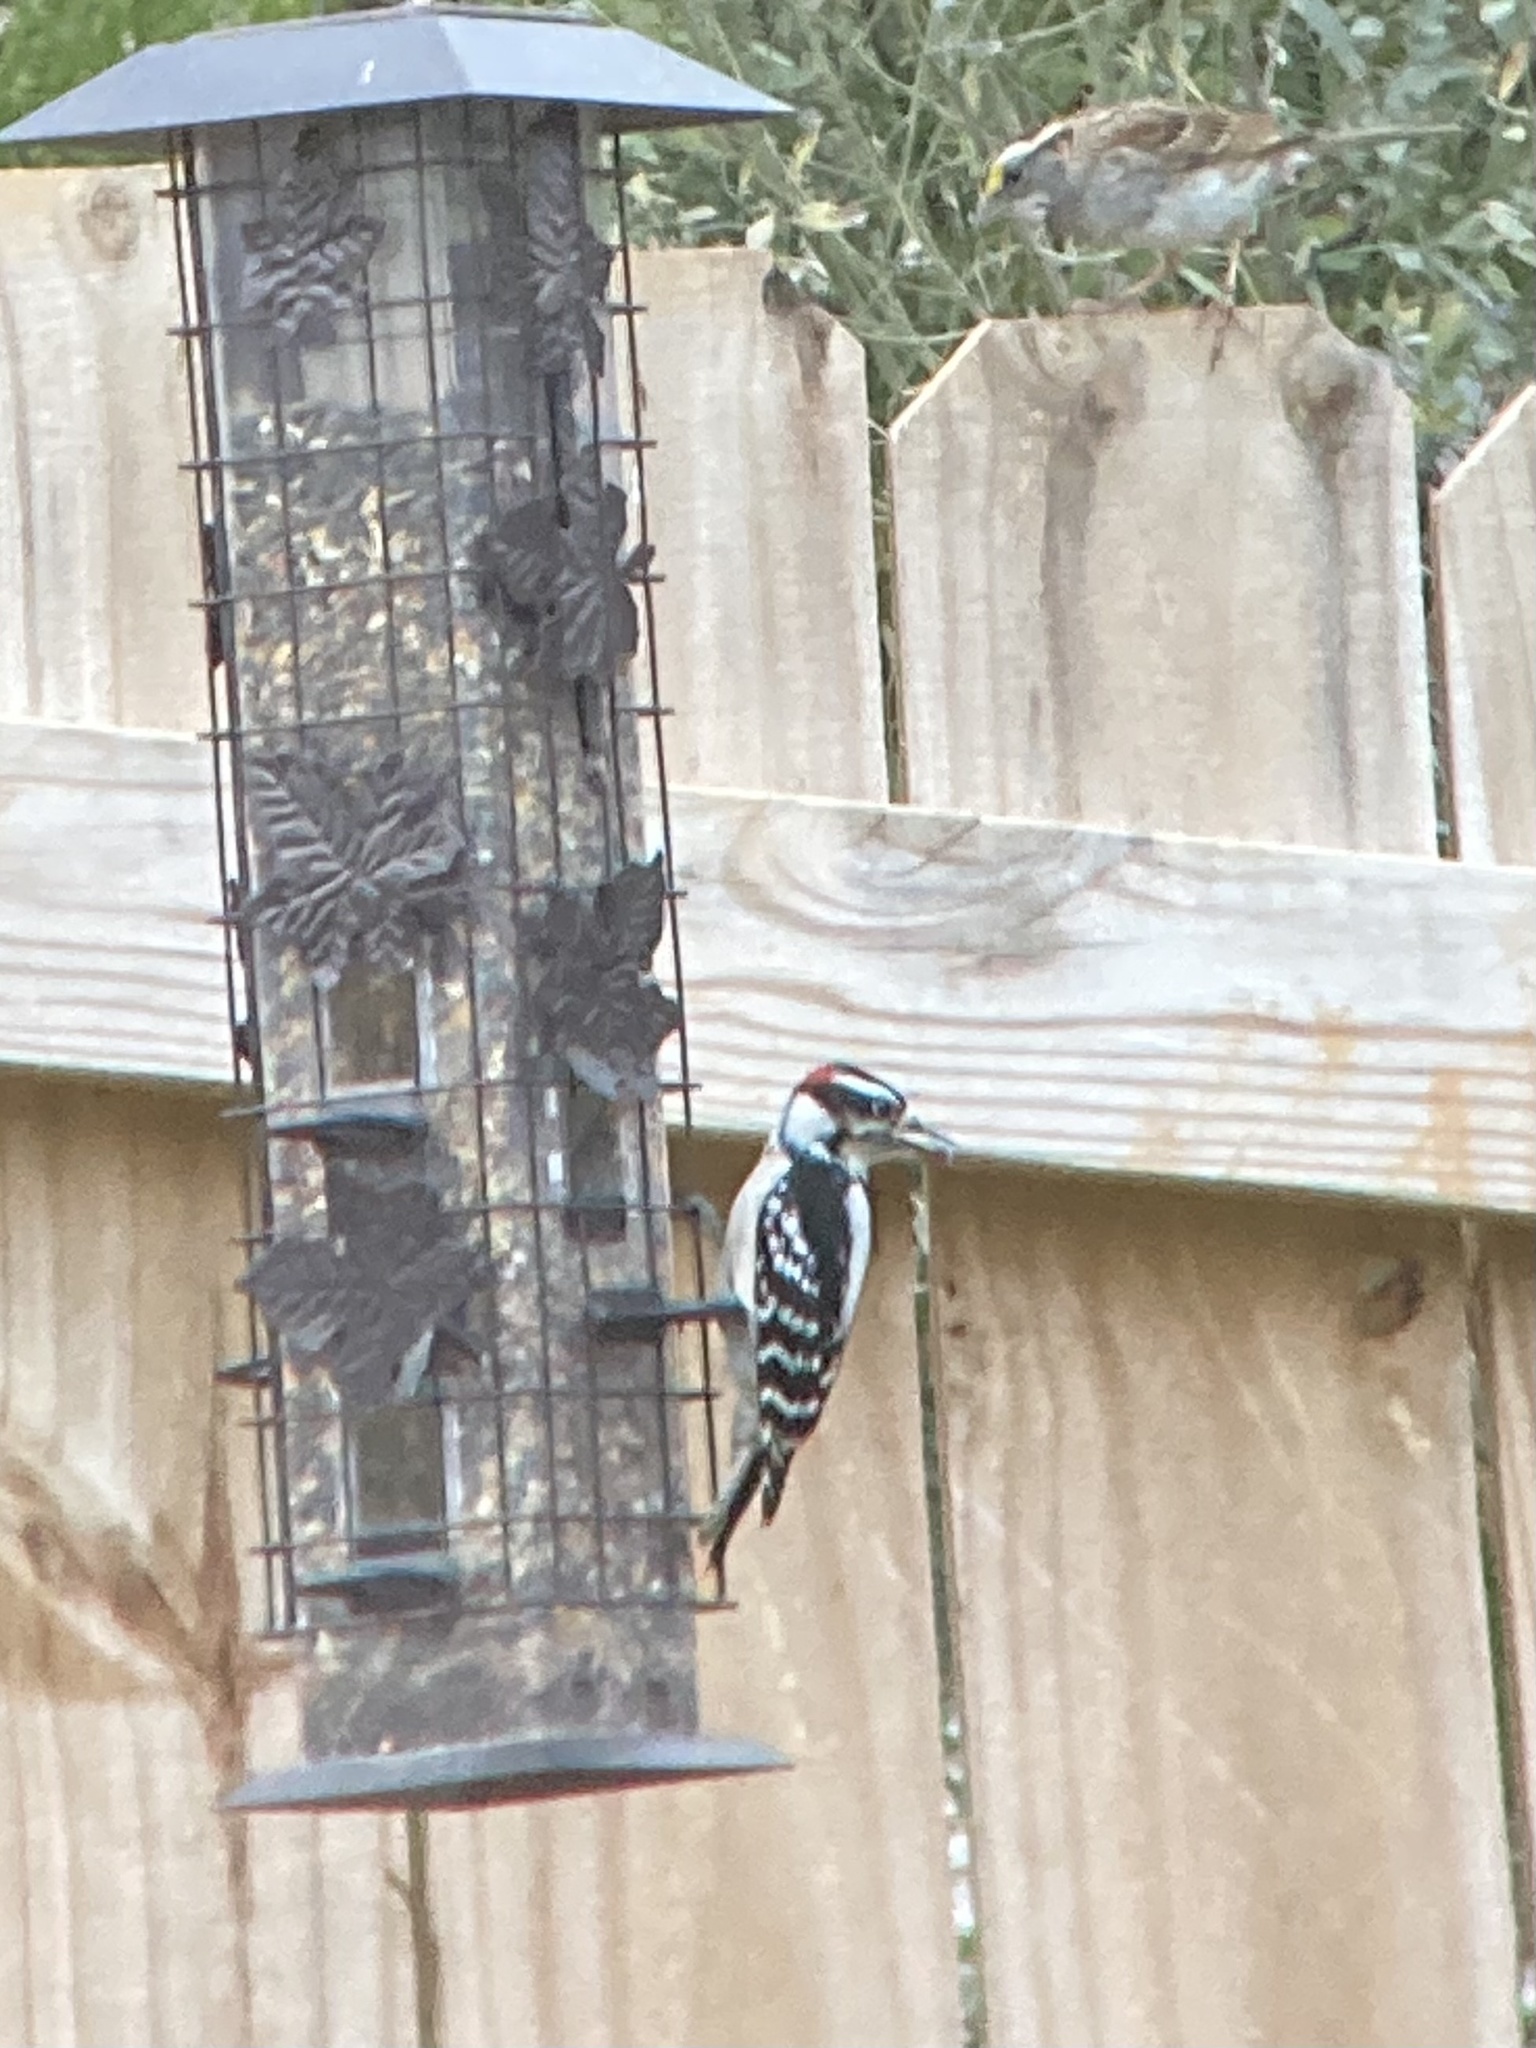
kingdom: Animalia
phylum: Chordata
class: Aves
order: Piciformes
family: Picidae
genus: Dryobates
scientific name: Dryobates pubescens
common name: Downy woodpecker
